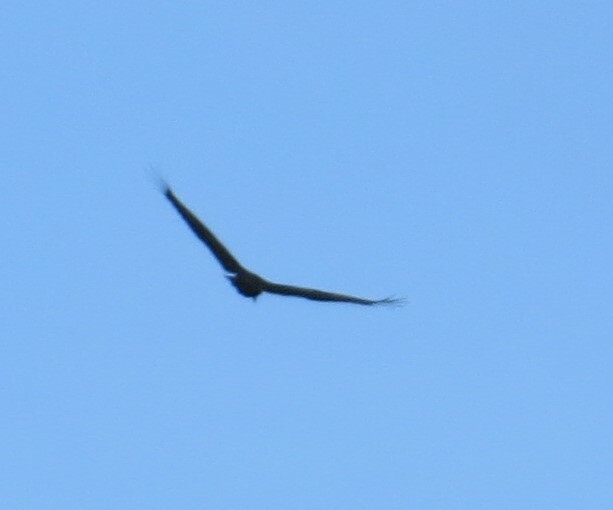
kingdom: Animalia
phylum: Chordata
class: Aves
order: Accipitriformes
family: Cathartidae
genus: Cathartes
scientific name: Cathartes aura
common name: Turkey vulture
